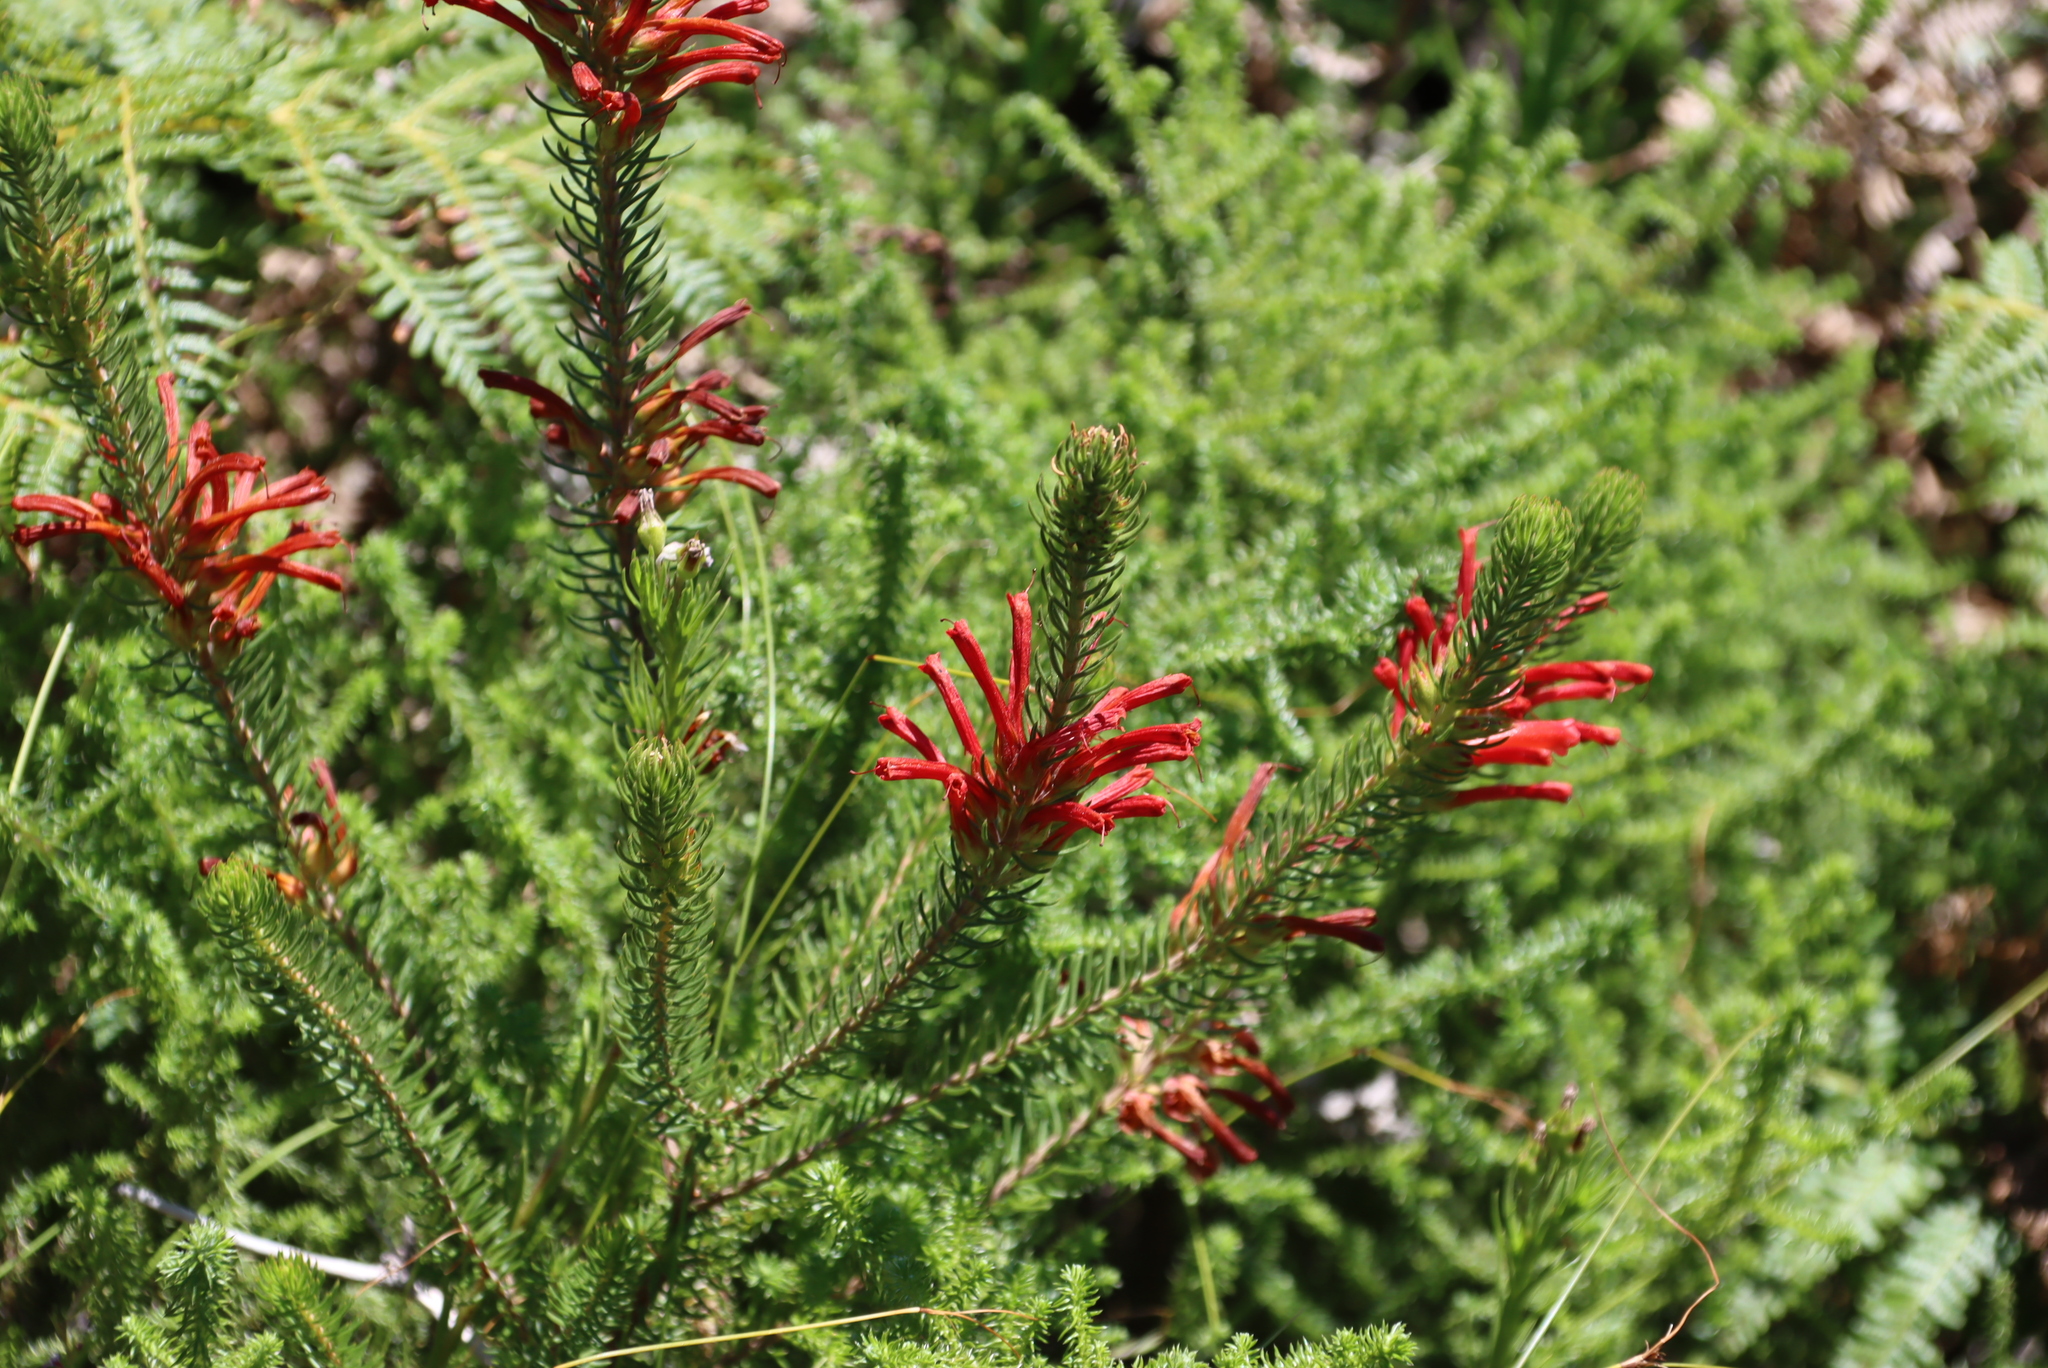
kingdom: Plantae
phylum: Tracheophyta
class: Magnoliopsida
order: Ericales
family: Ericaceae
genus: Erica
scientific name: Erica abietina
